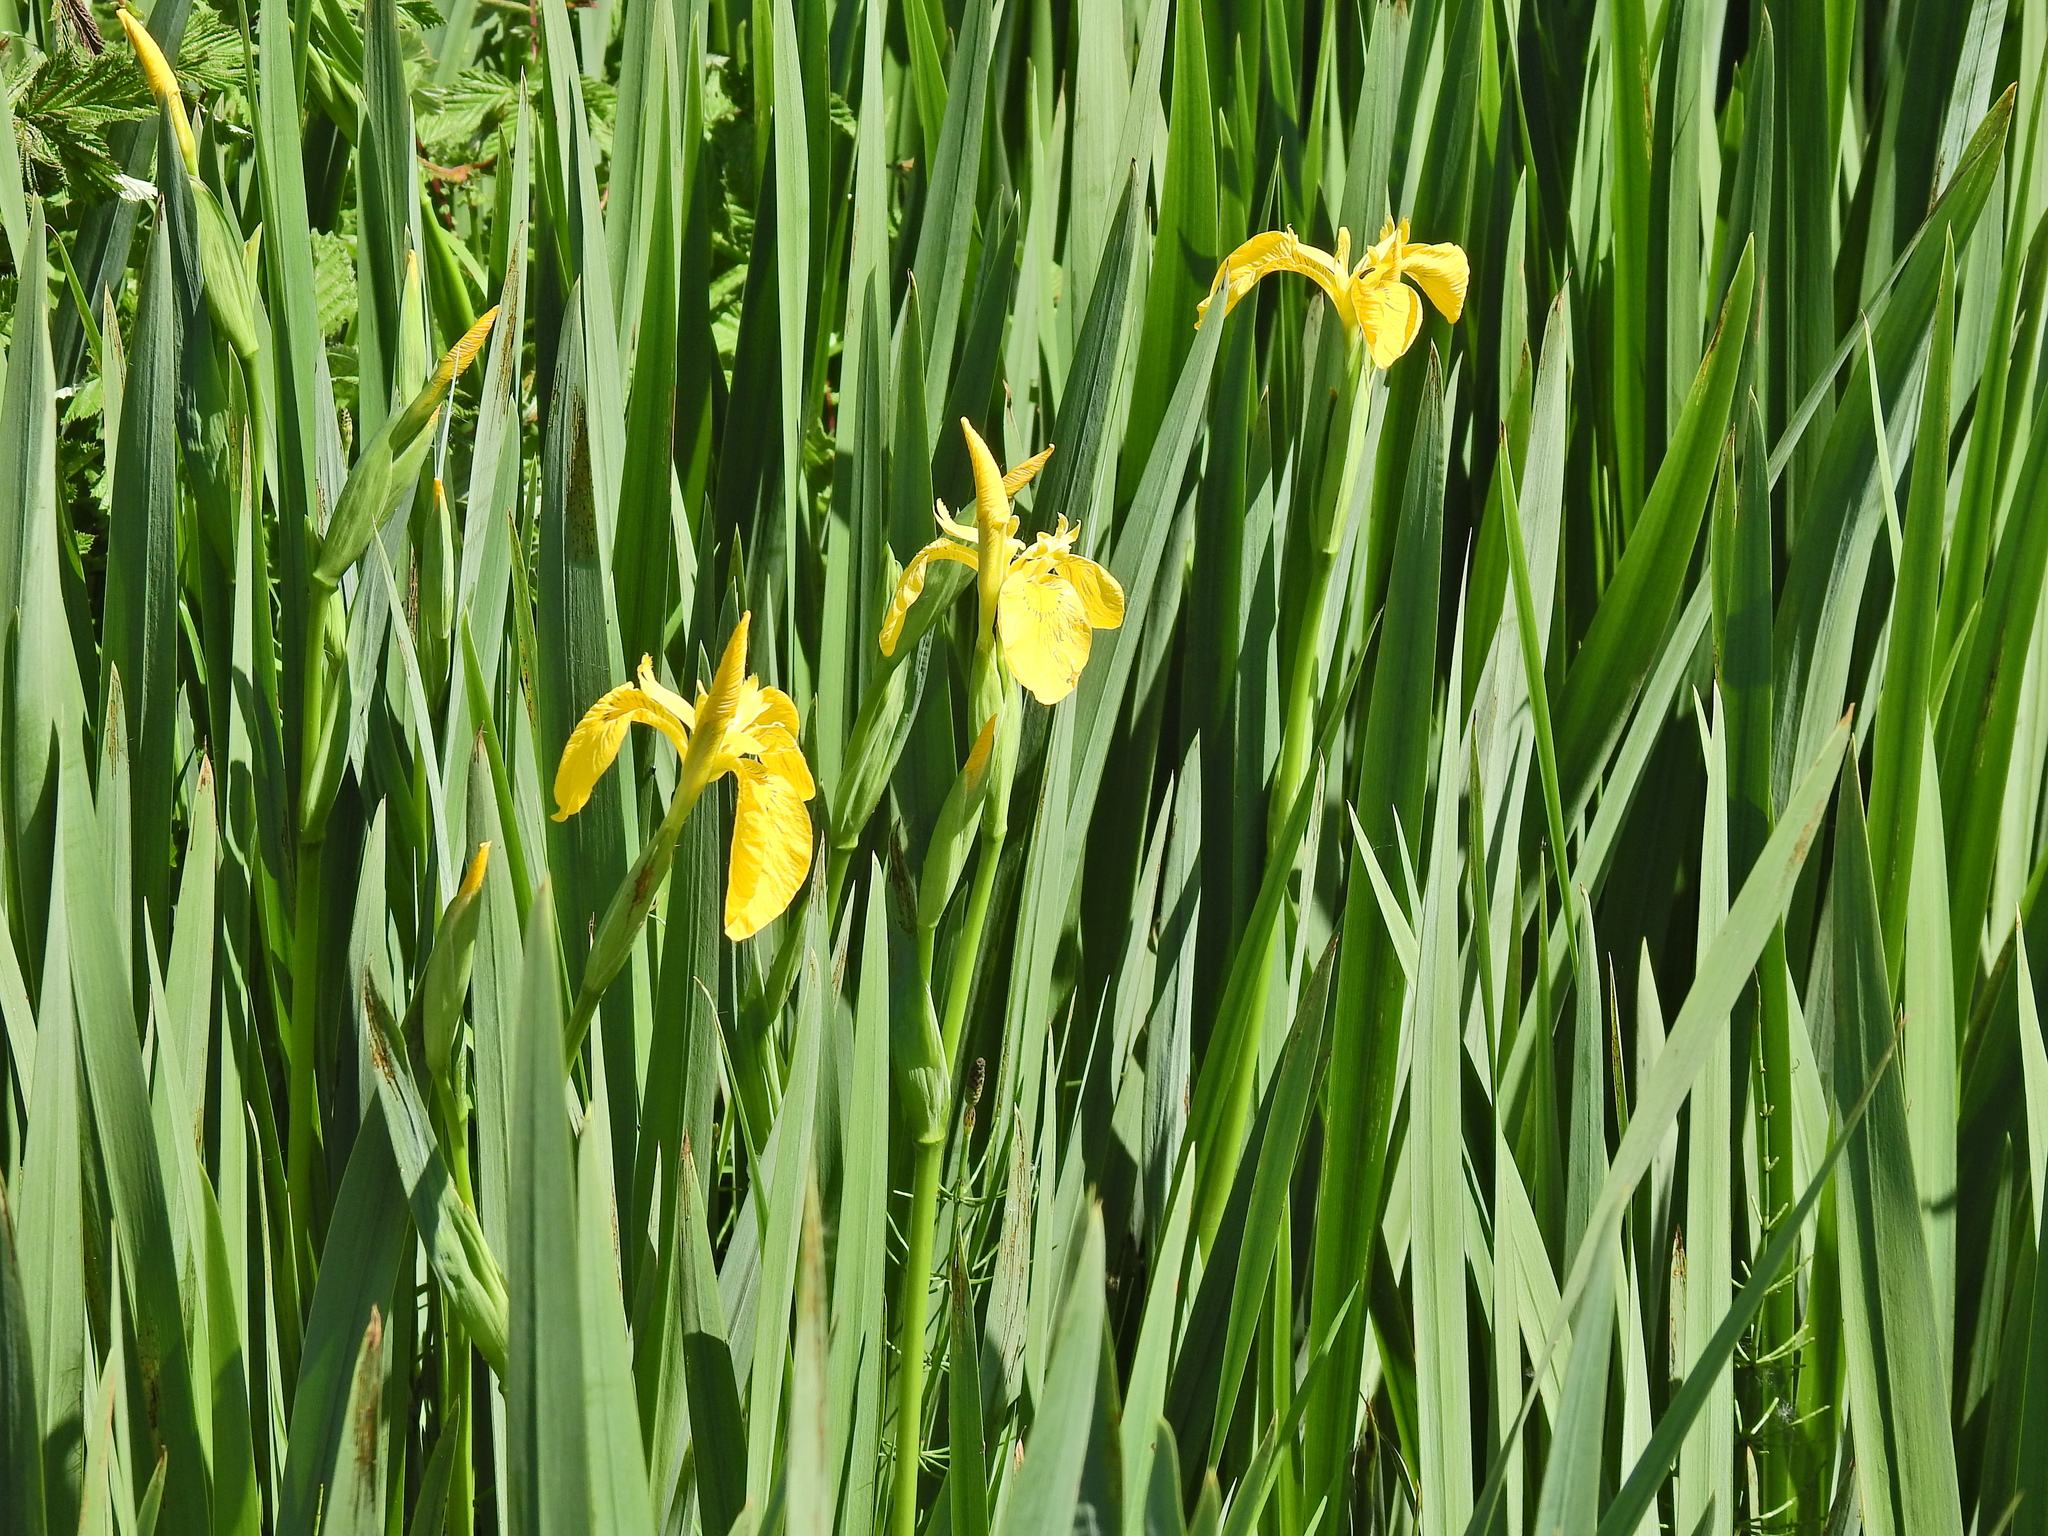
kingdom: Plantae
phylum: Tracheophyta
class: Liliopsida
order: Asparagales
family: Iridaceae
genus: Iris
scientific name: Iris pseudacorus
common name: Yellow flag
